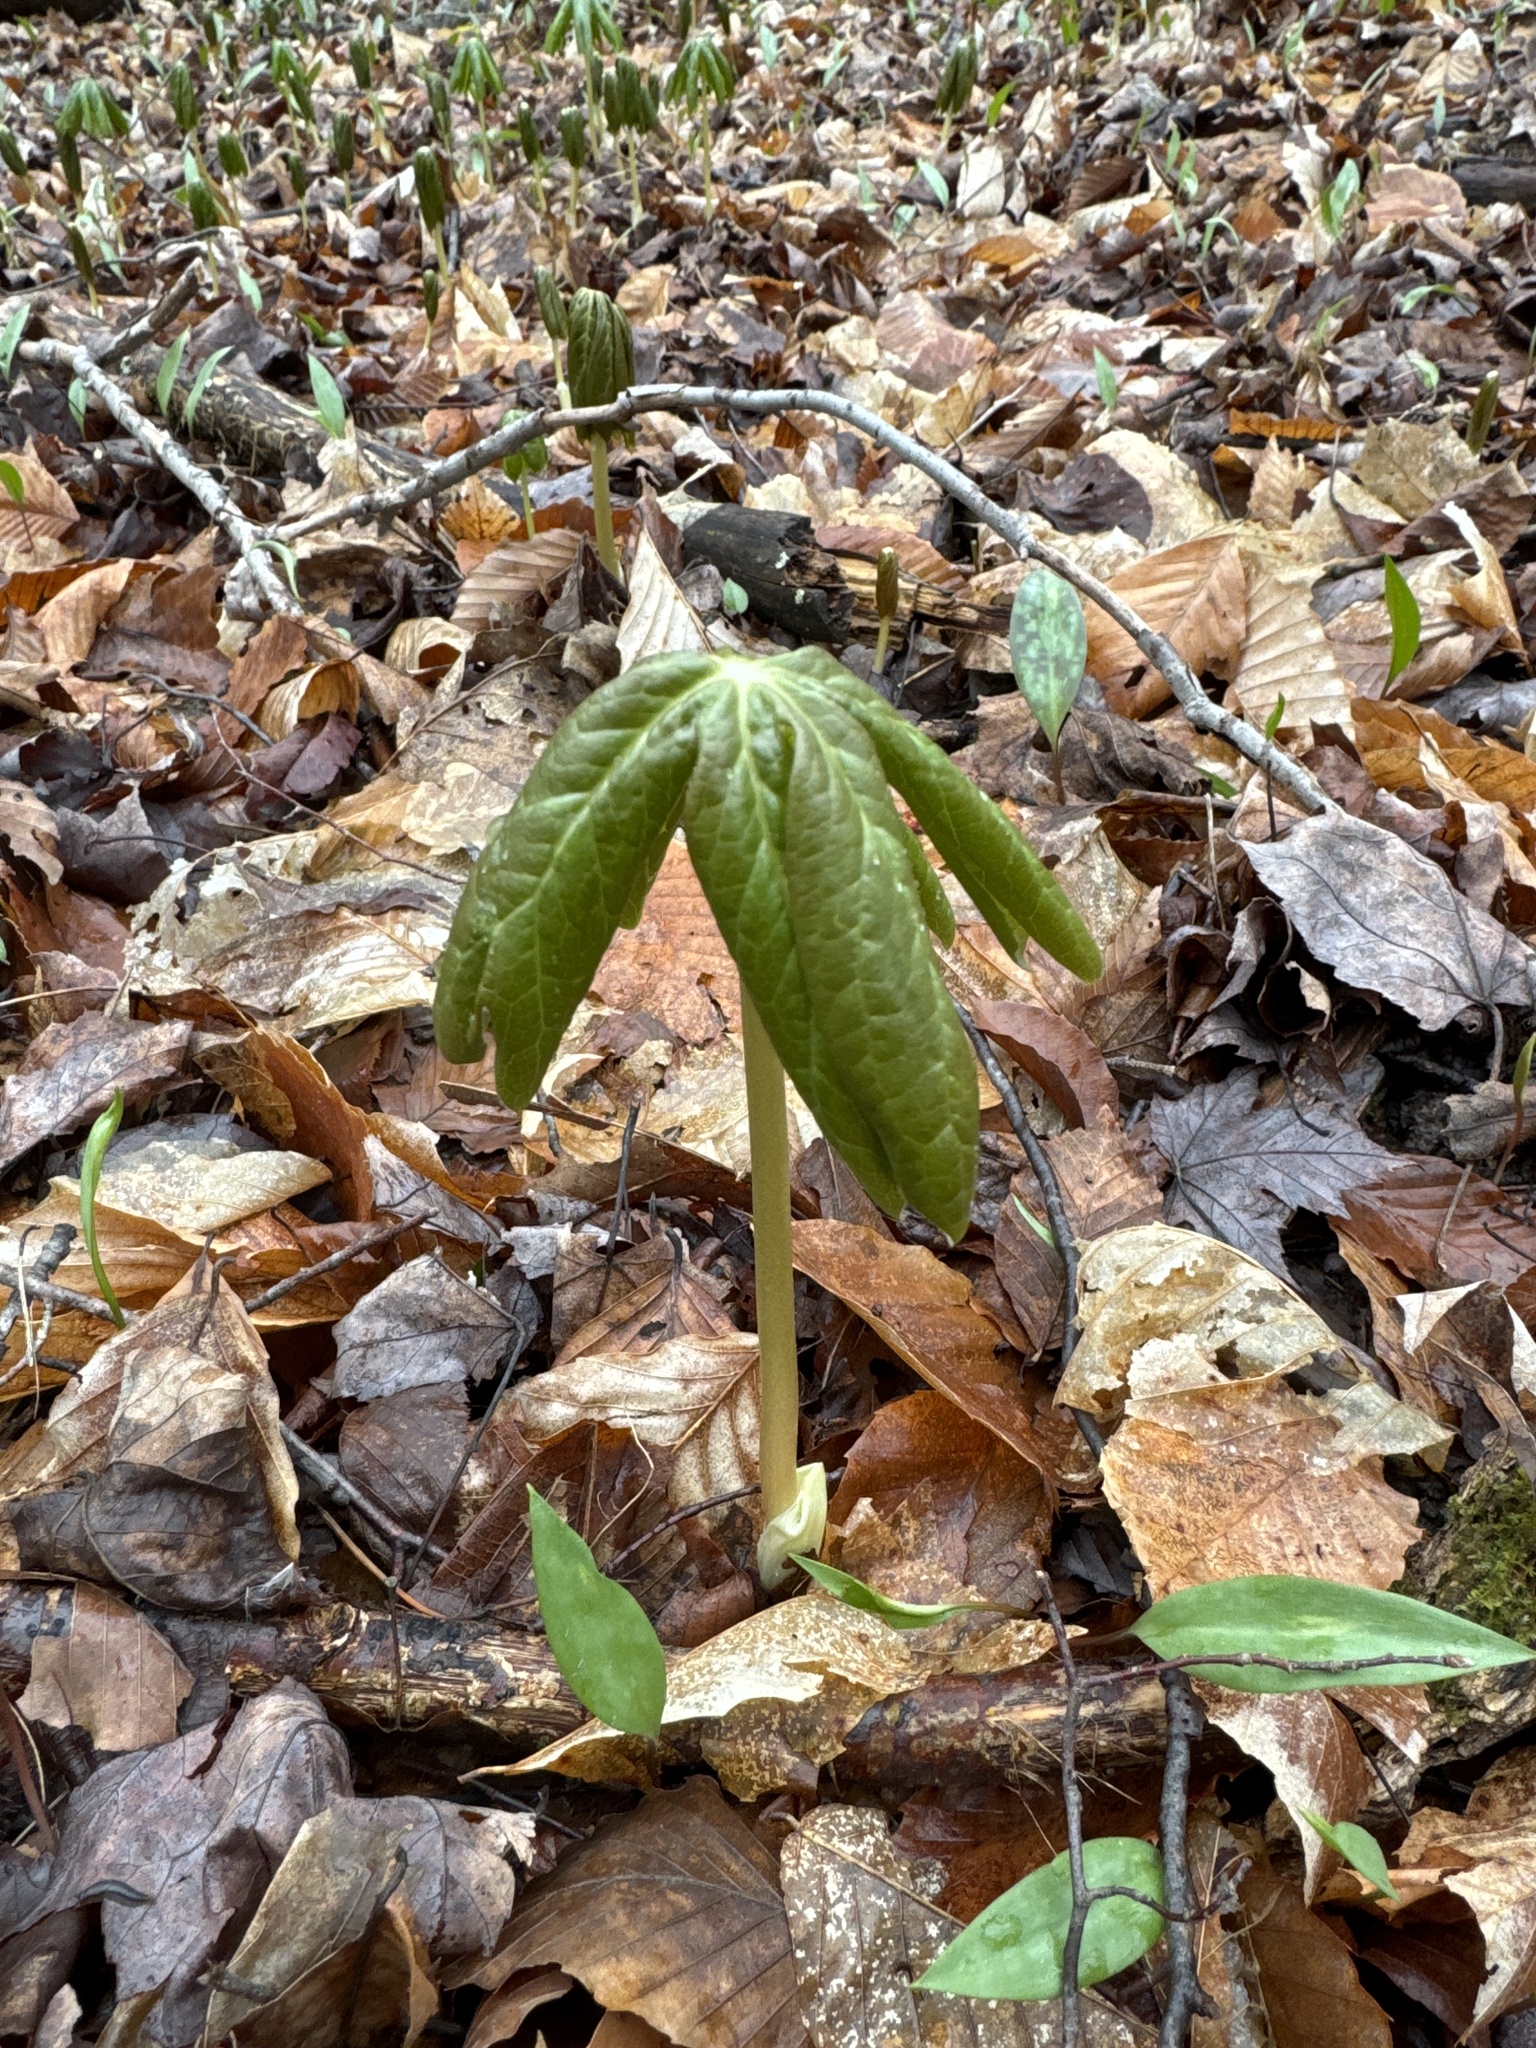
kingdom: Plantae
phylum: Tracheophyta
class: Magnoliopsida
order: Ranunculales
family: Berberidaceae
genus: Podophyllum
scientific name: Podophyllum peltatum
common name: Wild mandrake
